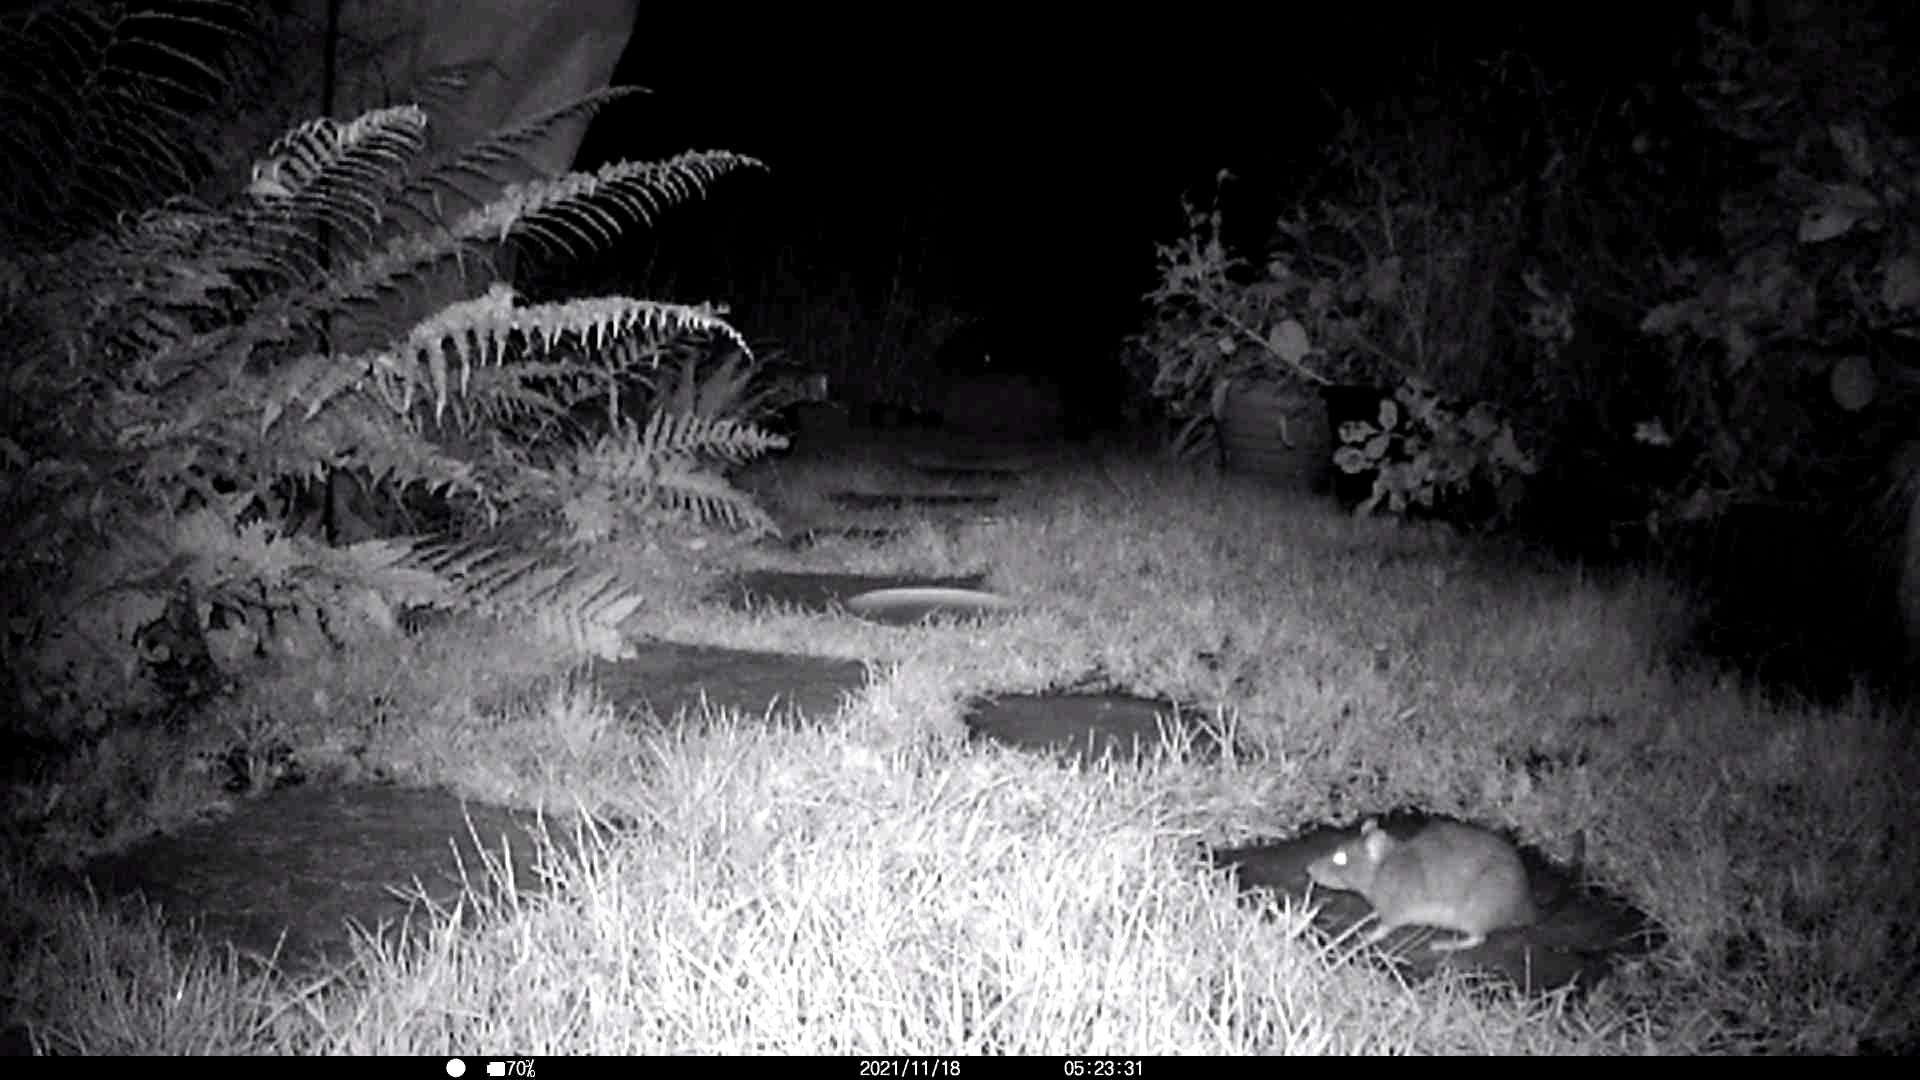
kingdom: Animalia
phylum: Chordata
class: Mammalia
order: Rodentia
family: Muridae
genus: Rattus
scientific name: Rattus norvegicus
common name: Brown rat
